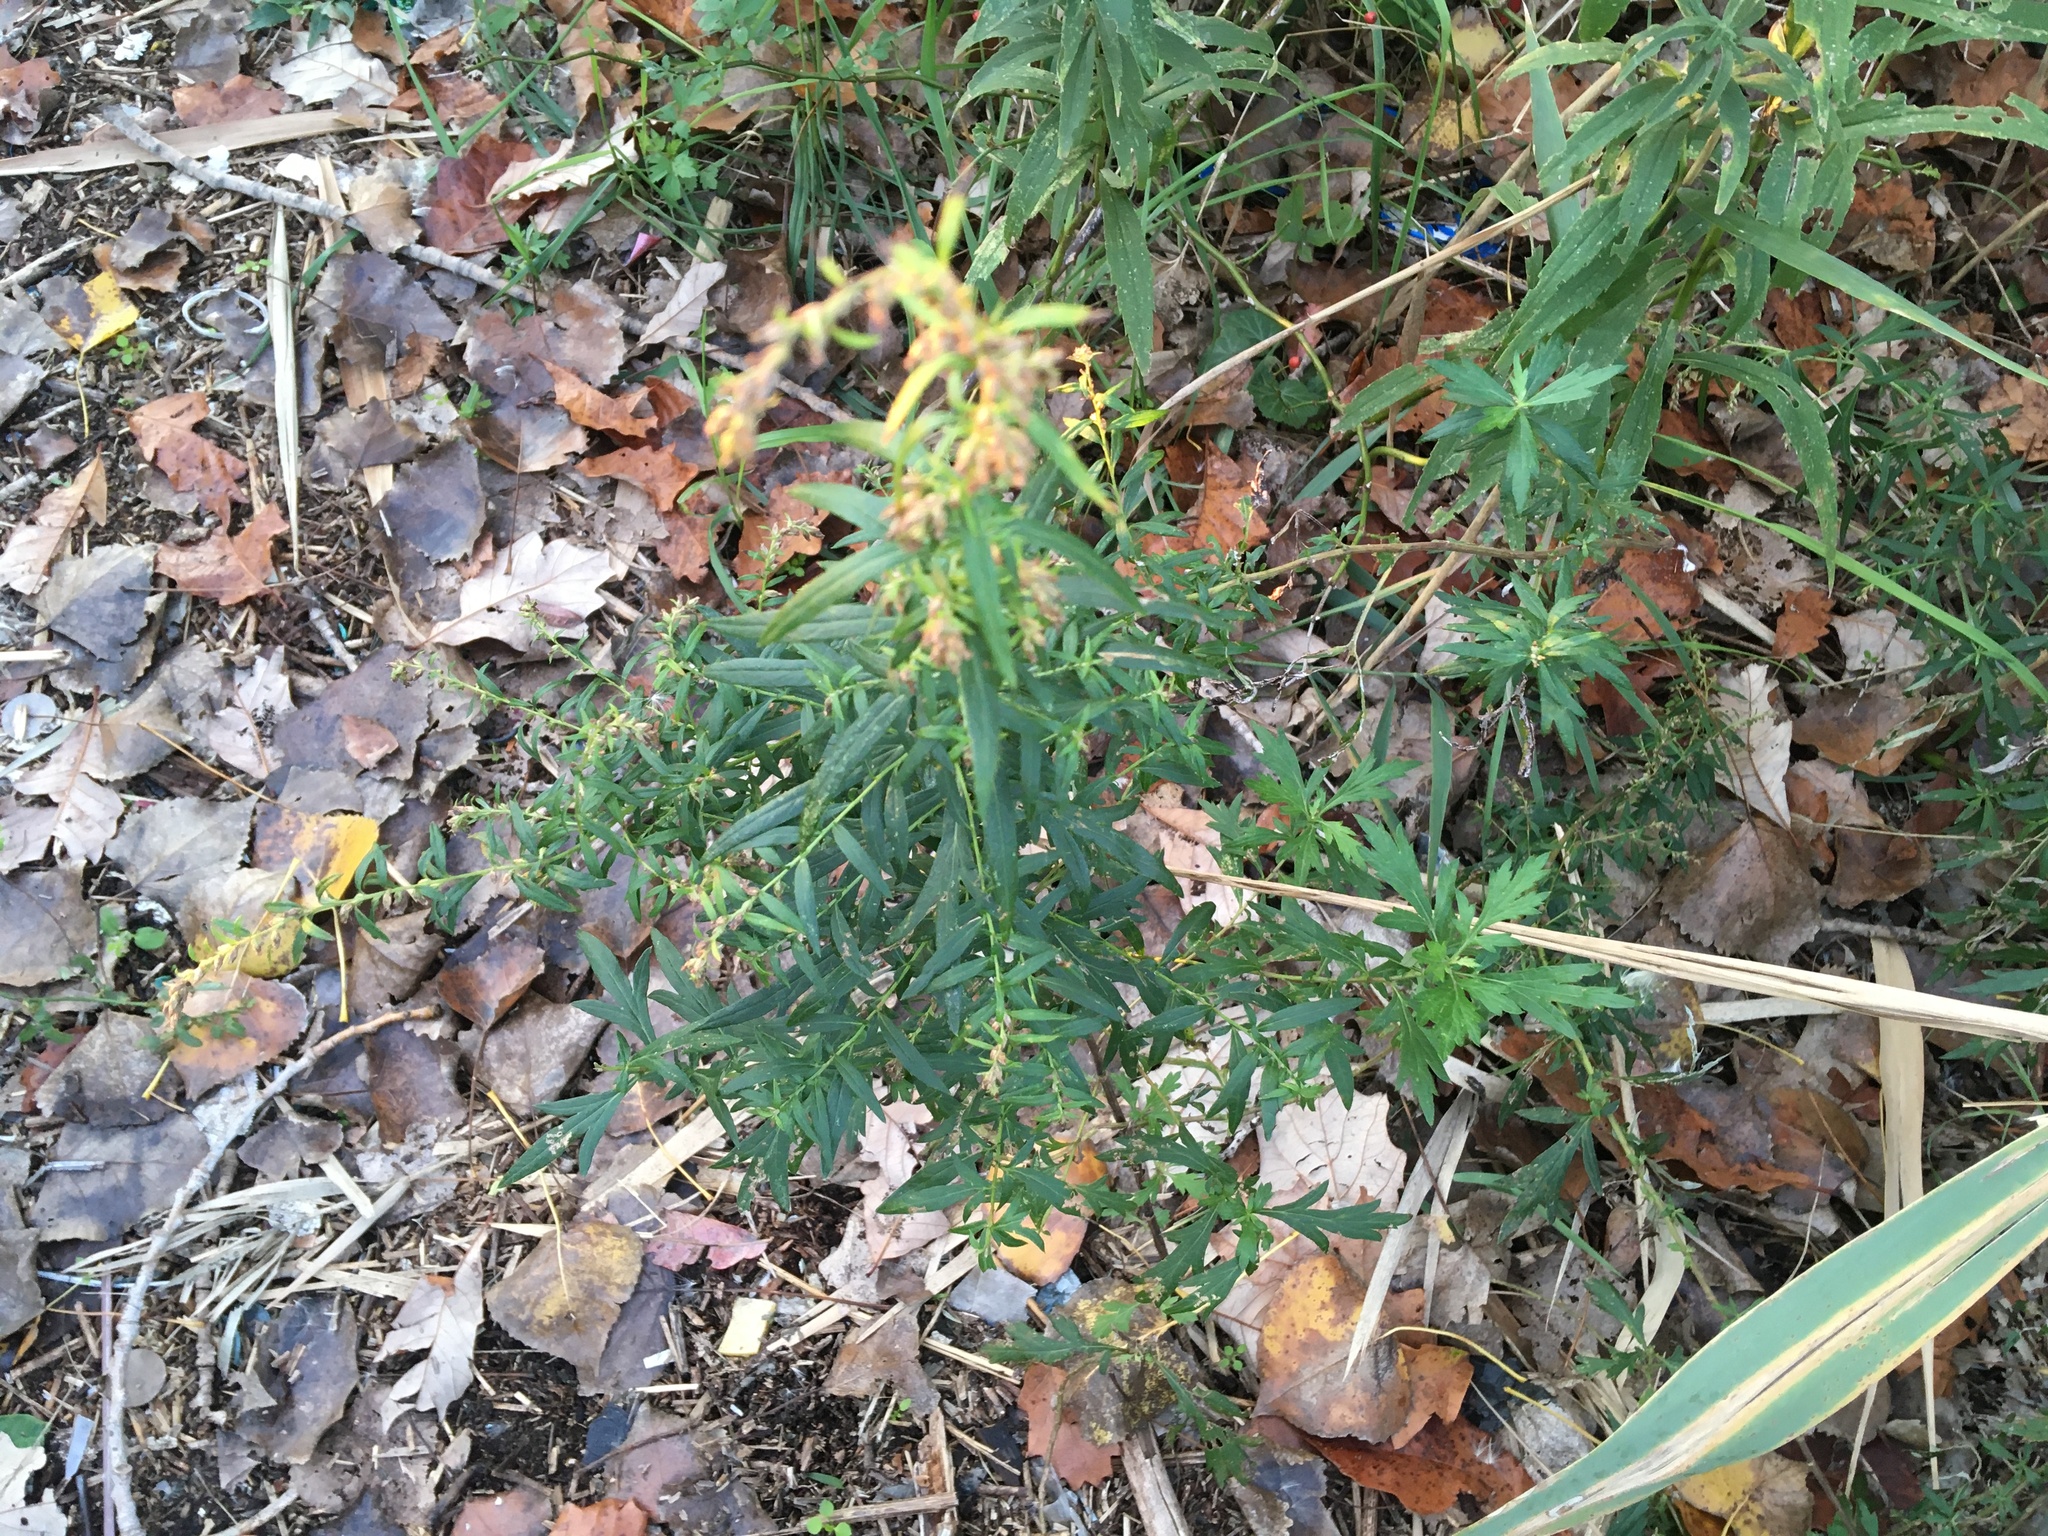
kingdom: Plantae
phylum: Tracheophyta
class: Magnoliopsida
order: Asterales
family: Asteraceae
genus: Artemisia
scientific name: Artemisia vulgaris
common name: Mugwort
